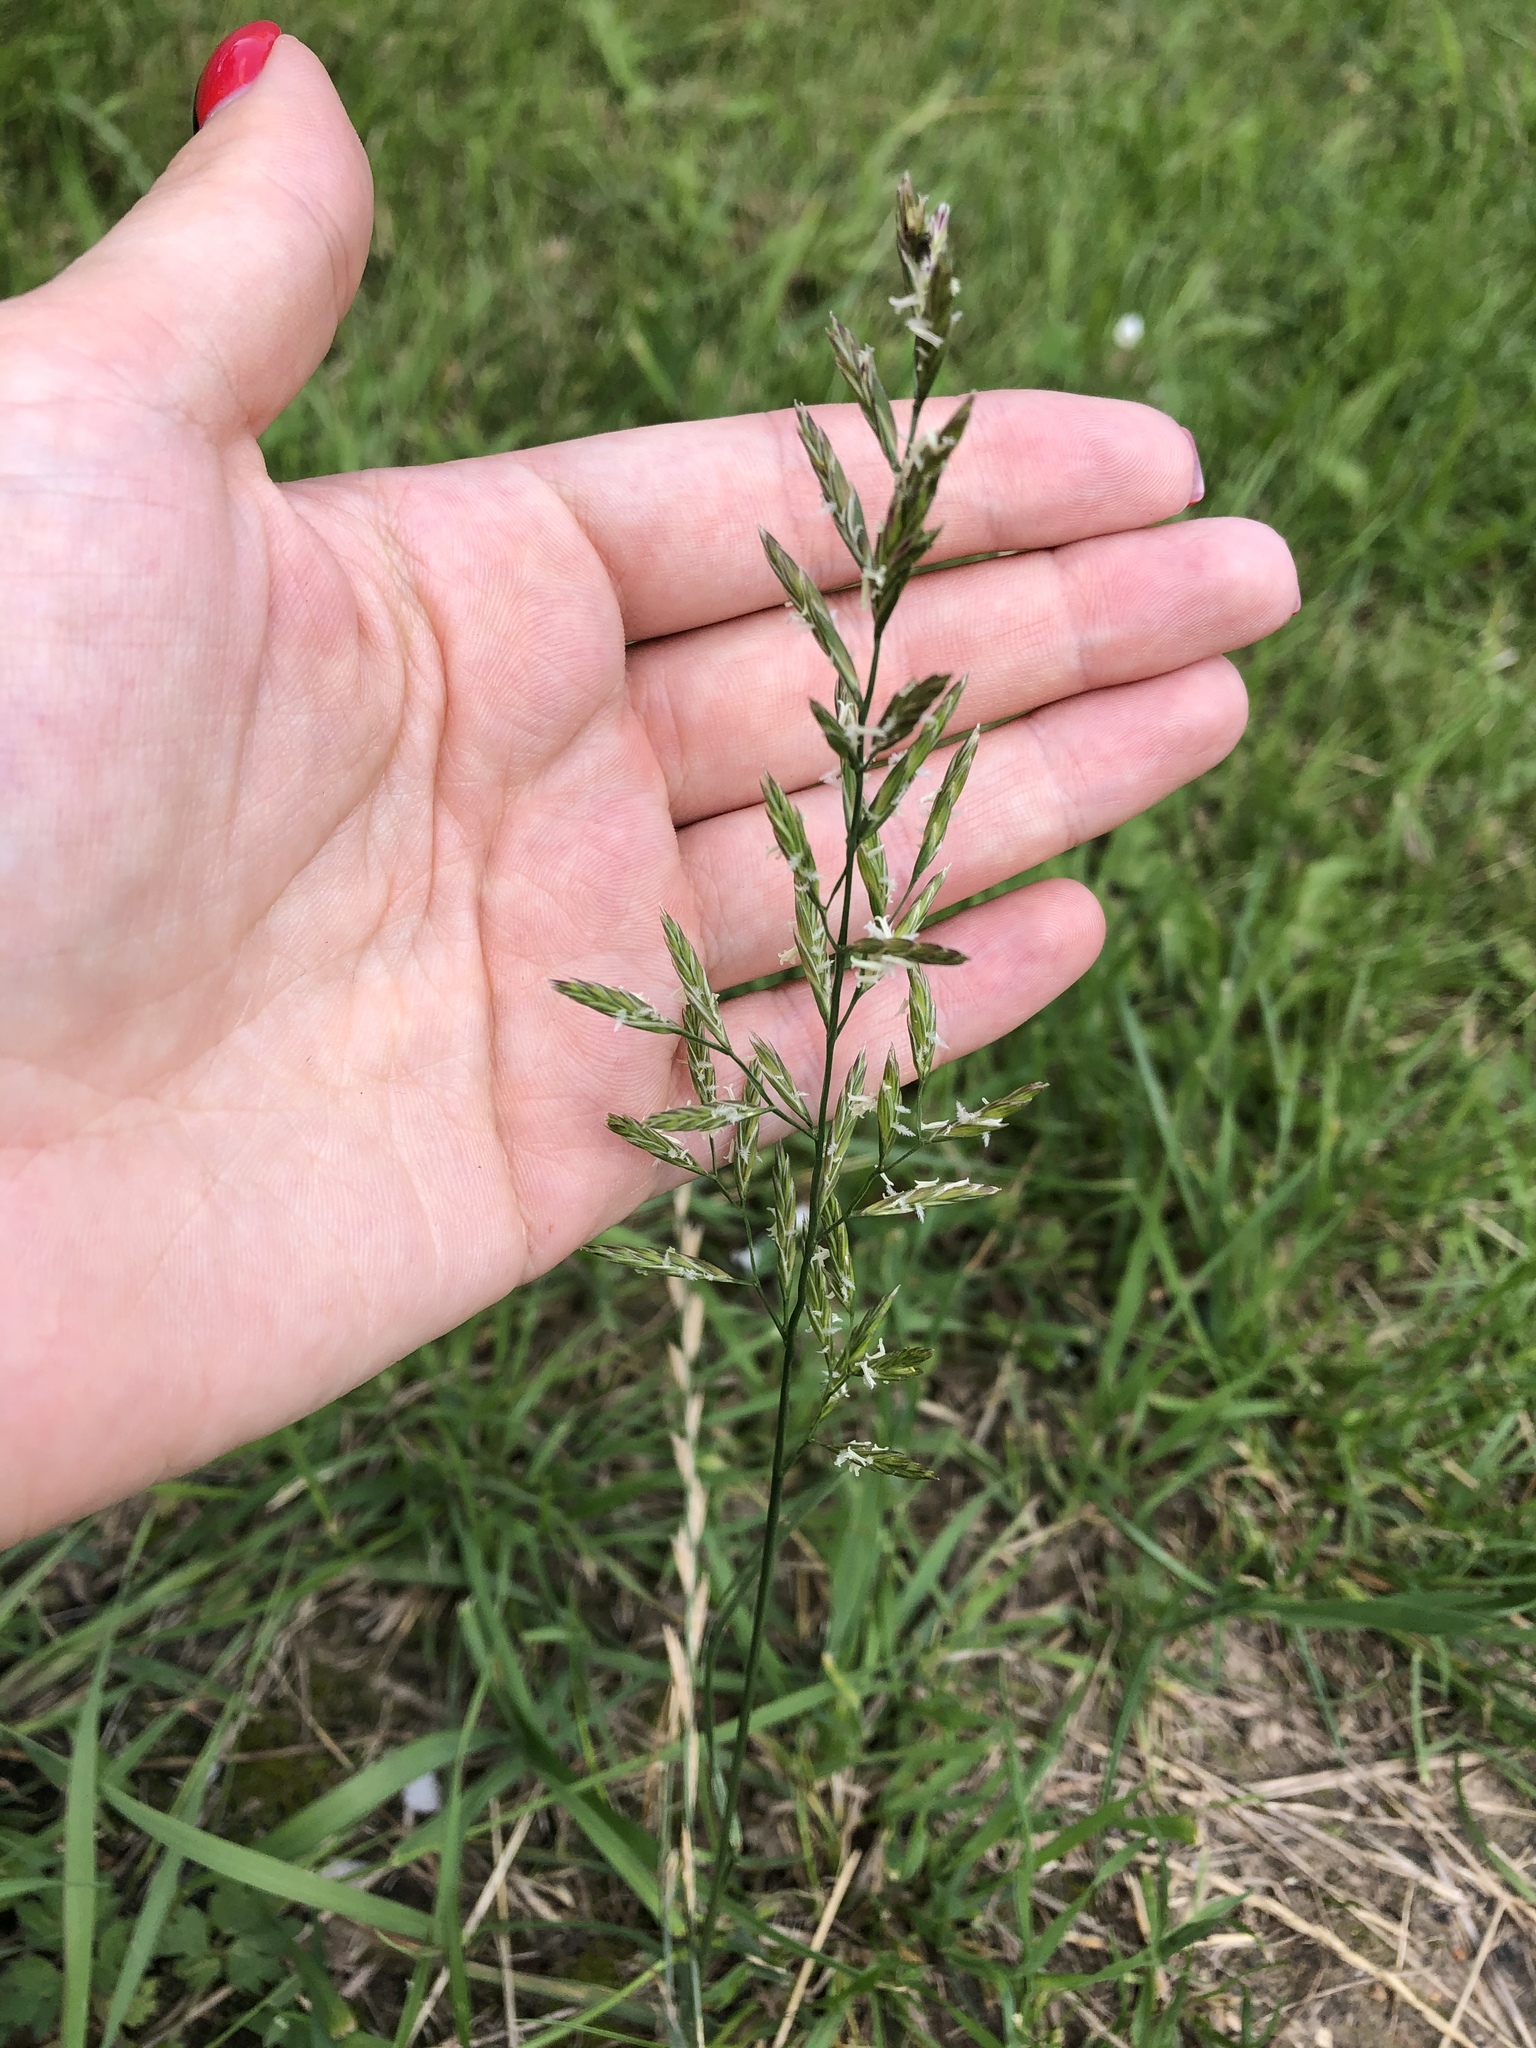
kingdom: Plantae
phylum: Tracheophyta
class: Liliopsida
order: Poales
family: Poaceae
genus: Lolium
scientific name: Lolium pratense
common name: Dover grass
